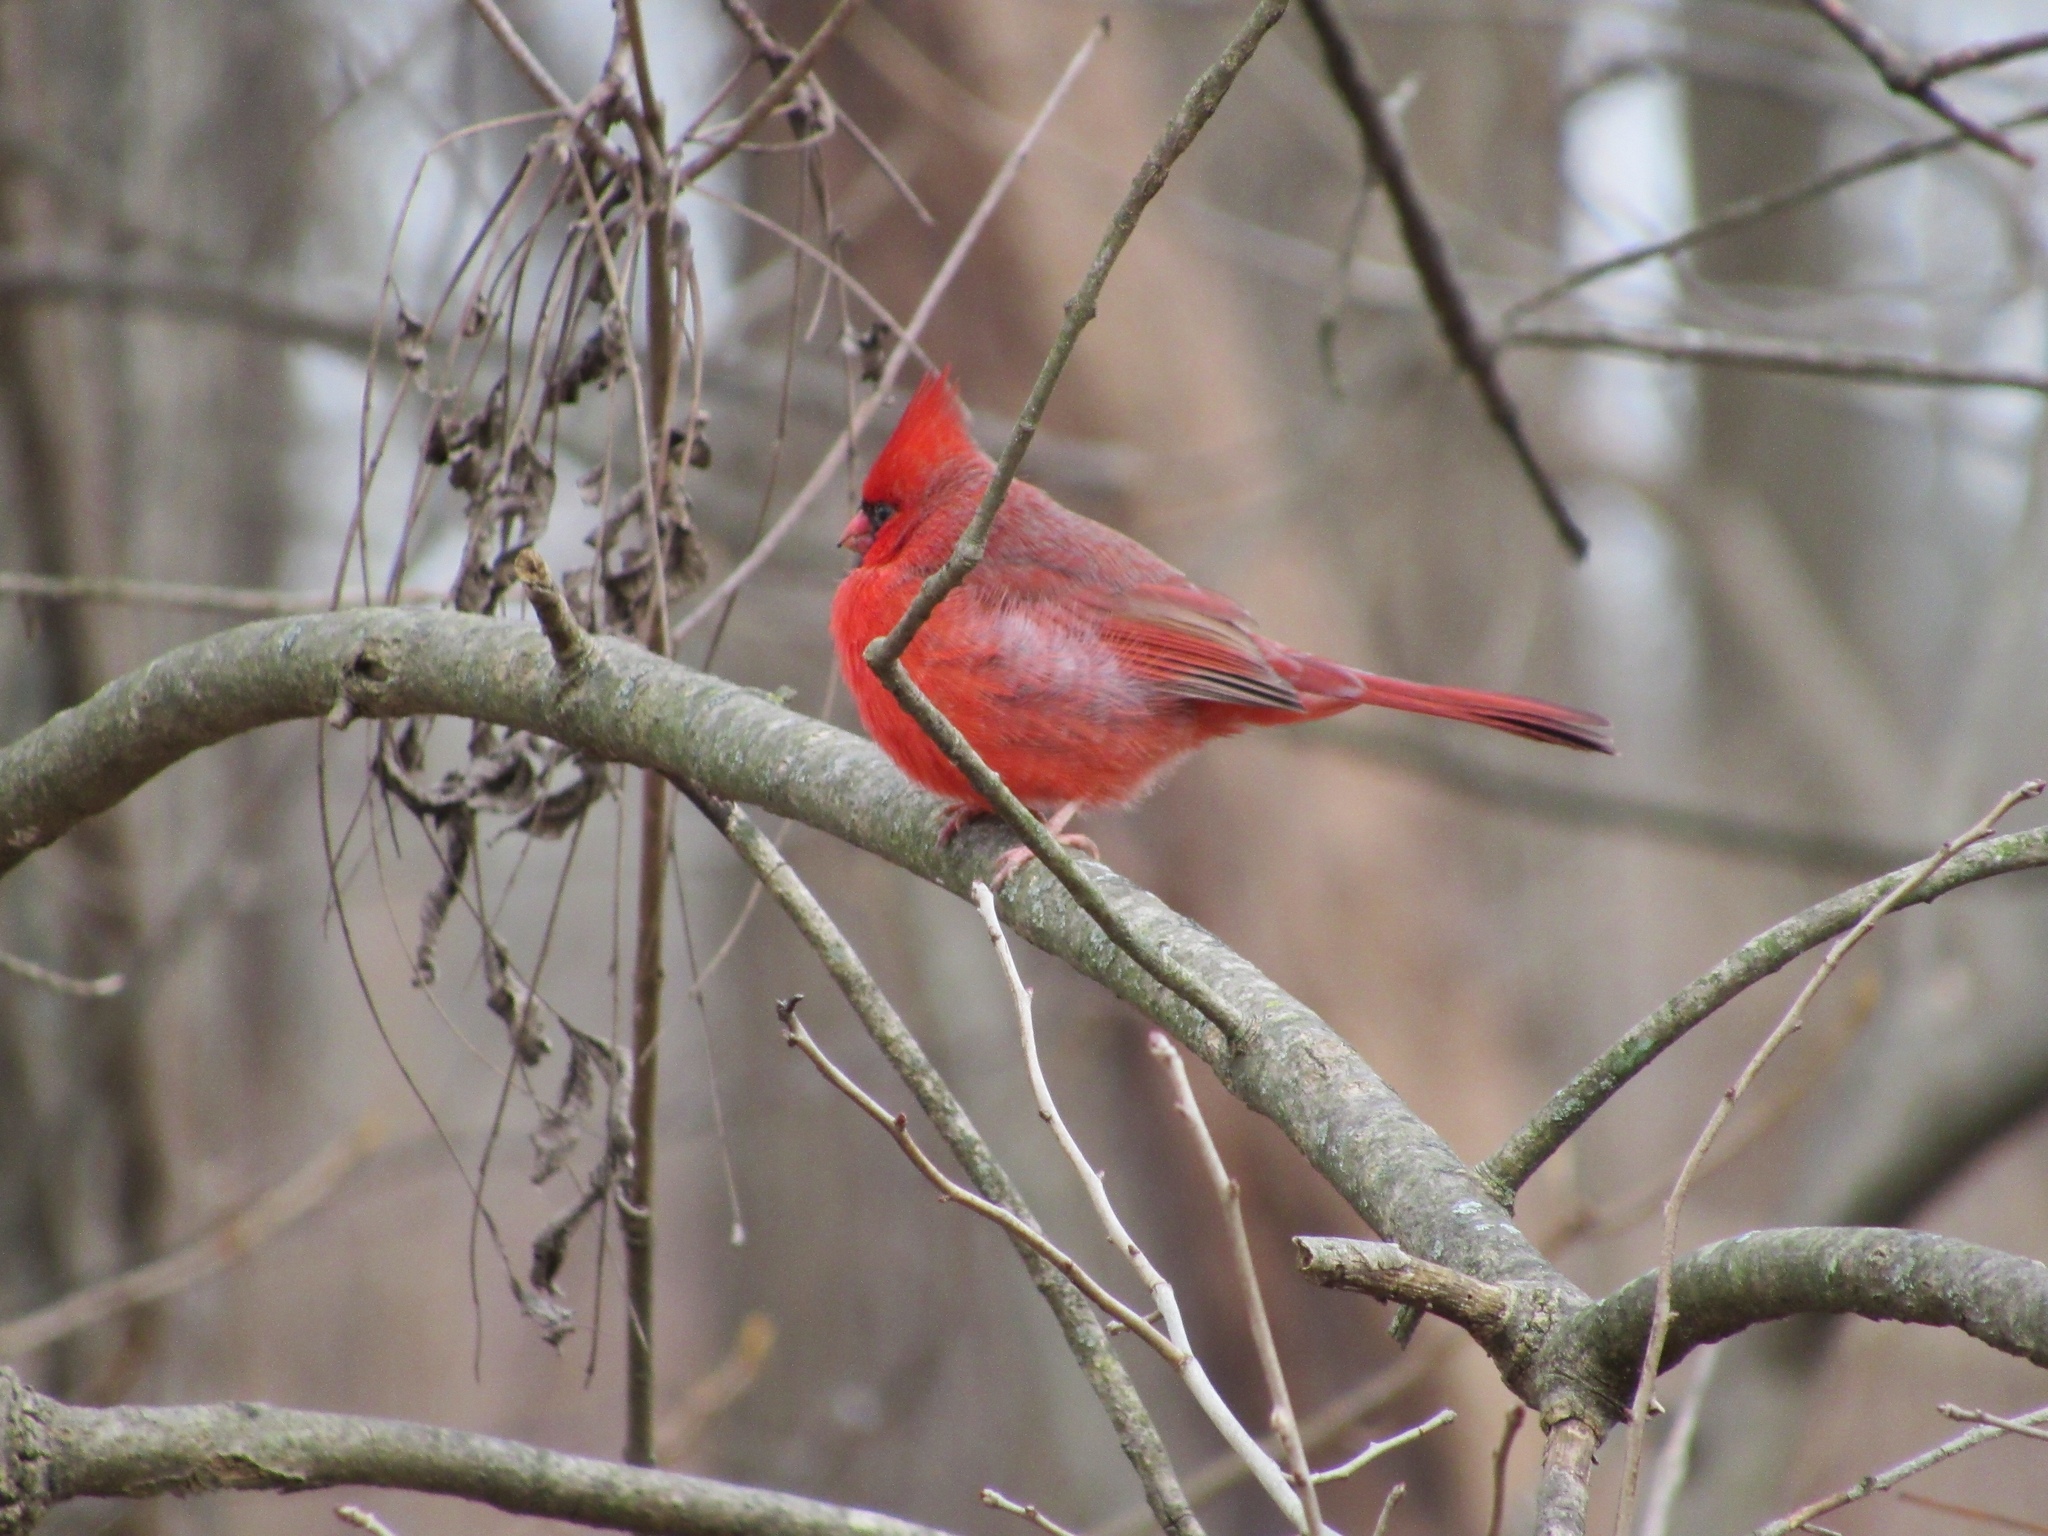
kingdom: Animalia
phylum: Chordata
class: Aves
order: Passeriformes
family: Cardinalidae
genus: Cardinalis
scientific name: Cardinalis cardinalis
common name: Northern cardinal
